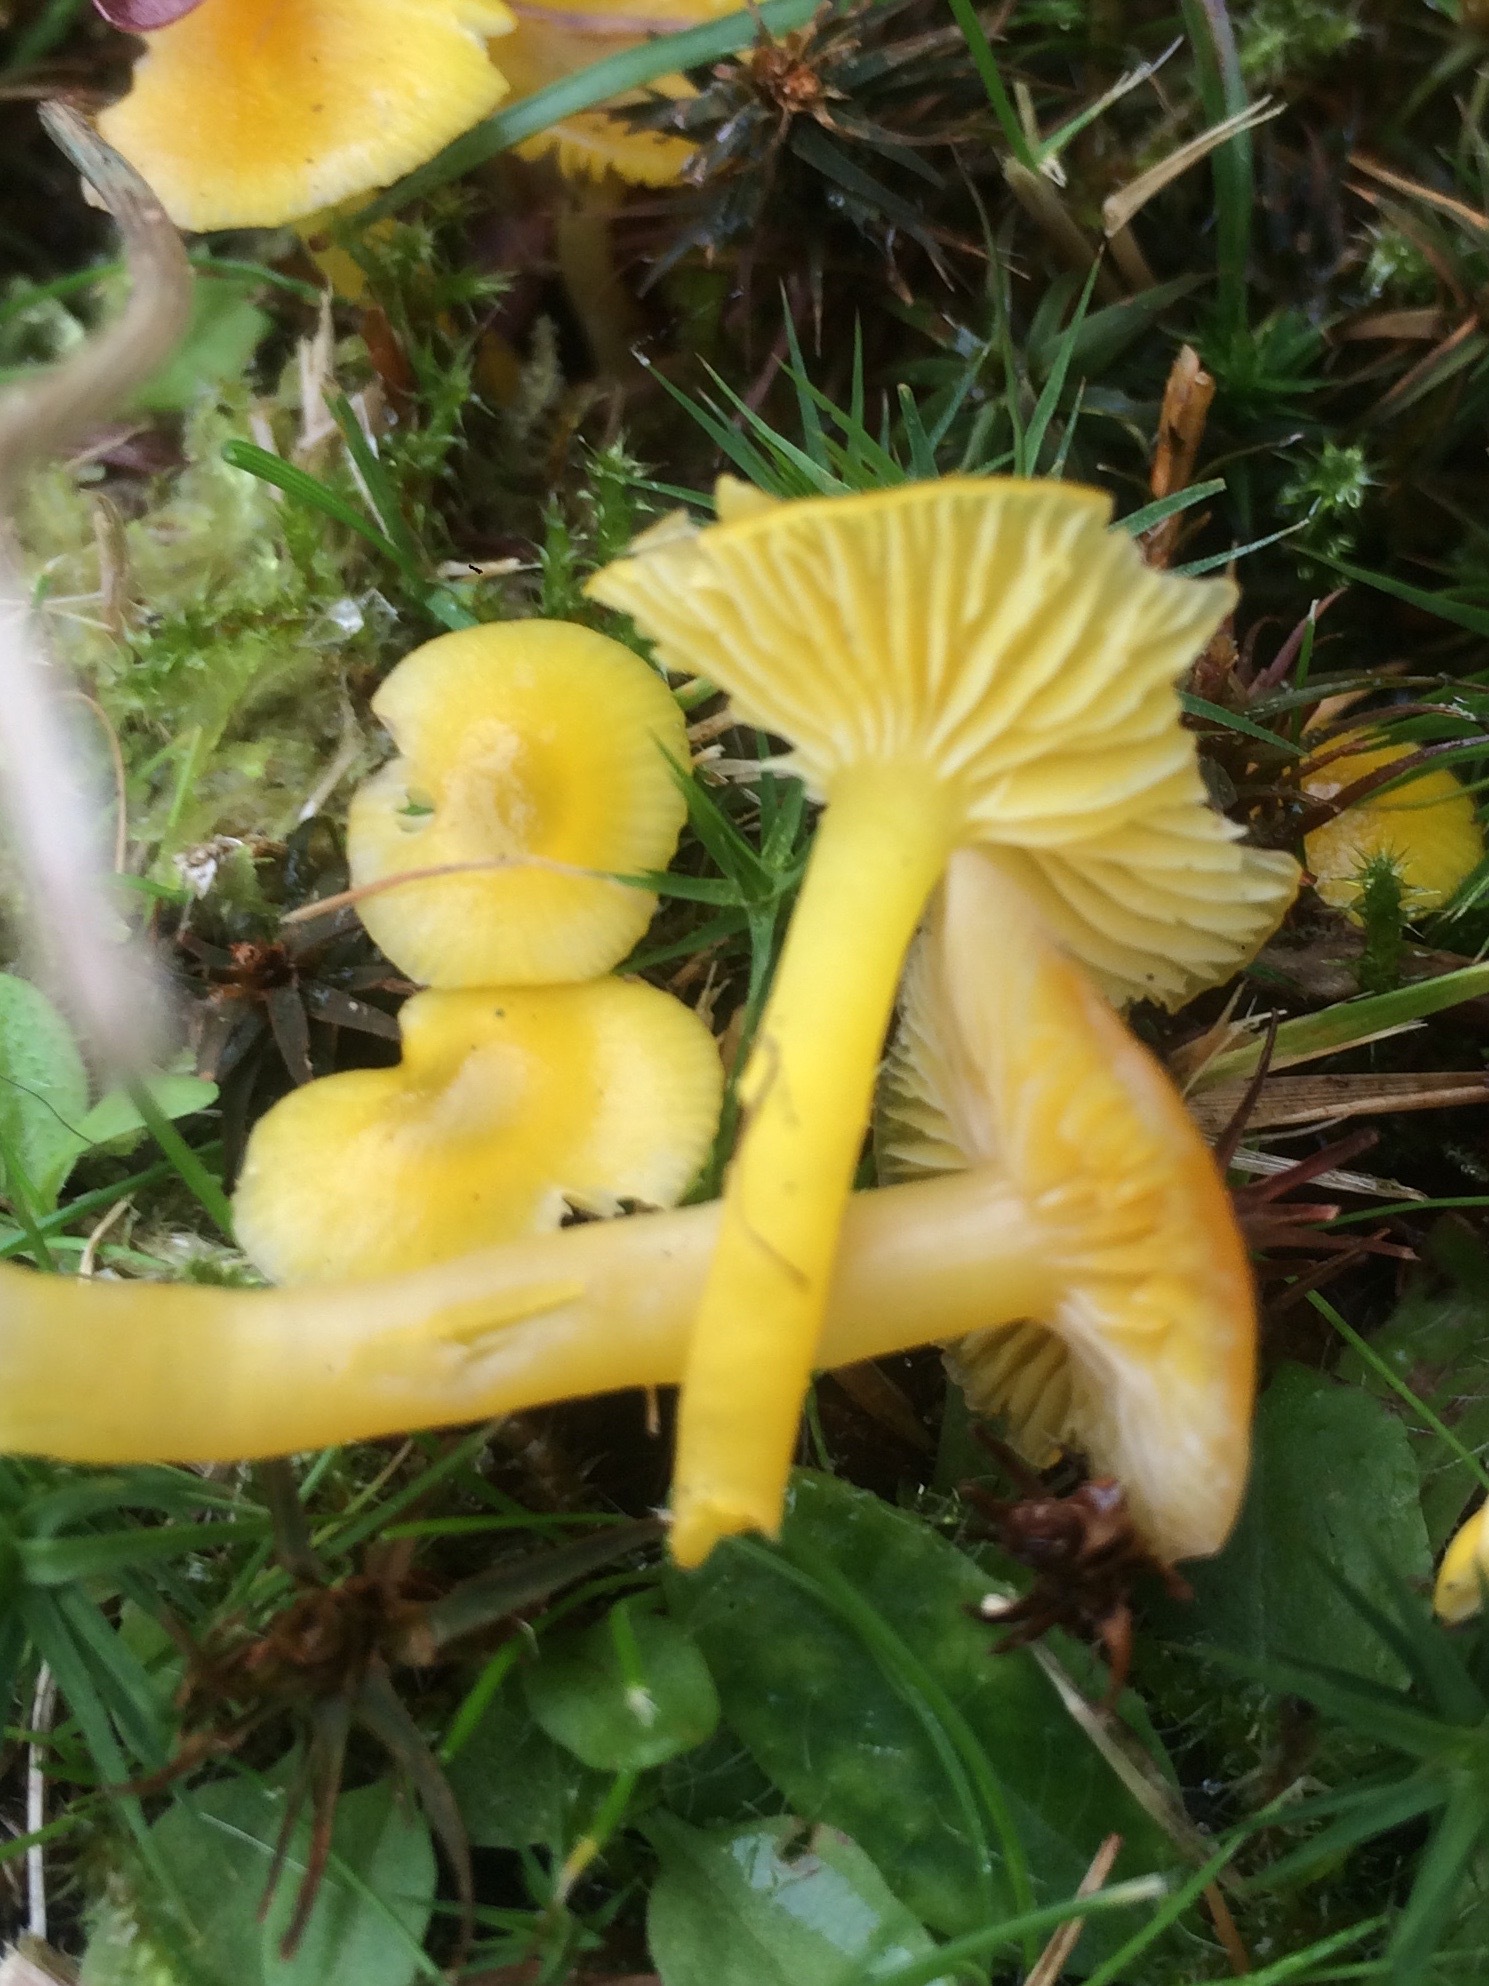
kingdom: Fungi
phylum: Basidiomycota
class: Agaricomycetes
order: Agaricales
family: Hygrophoraceae
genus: Hygrocybe
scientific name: Hygrocybe ceracea
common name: Butter waxcap
